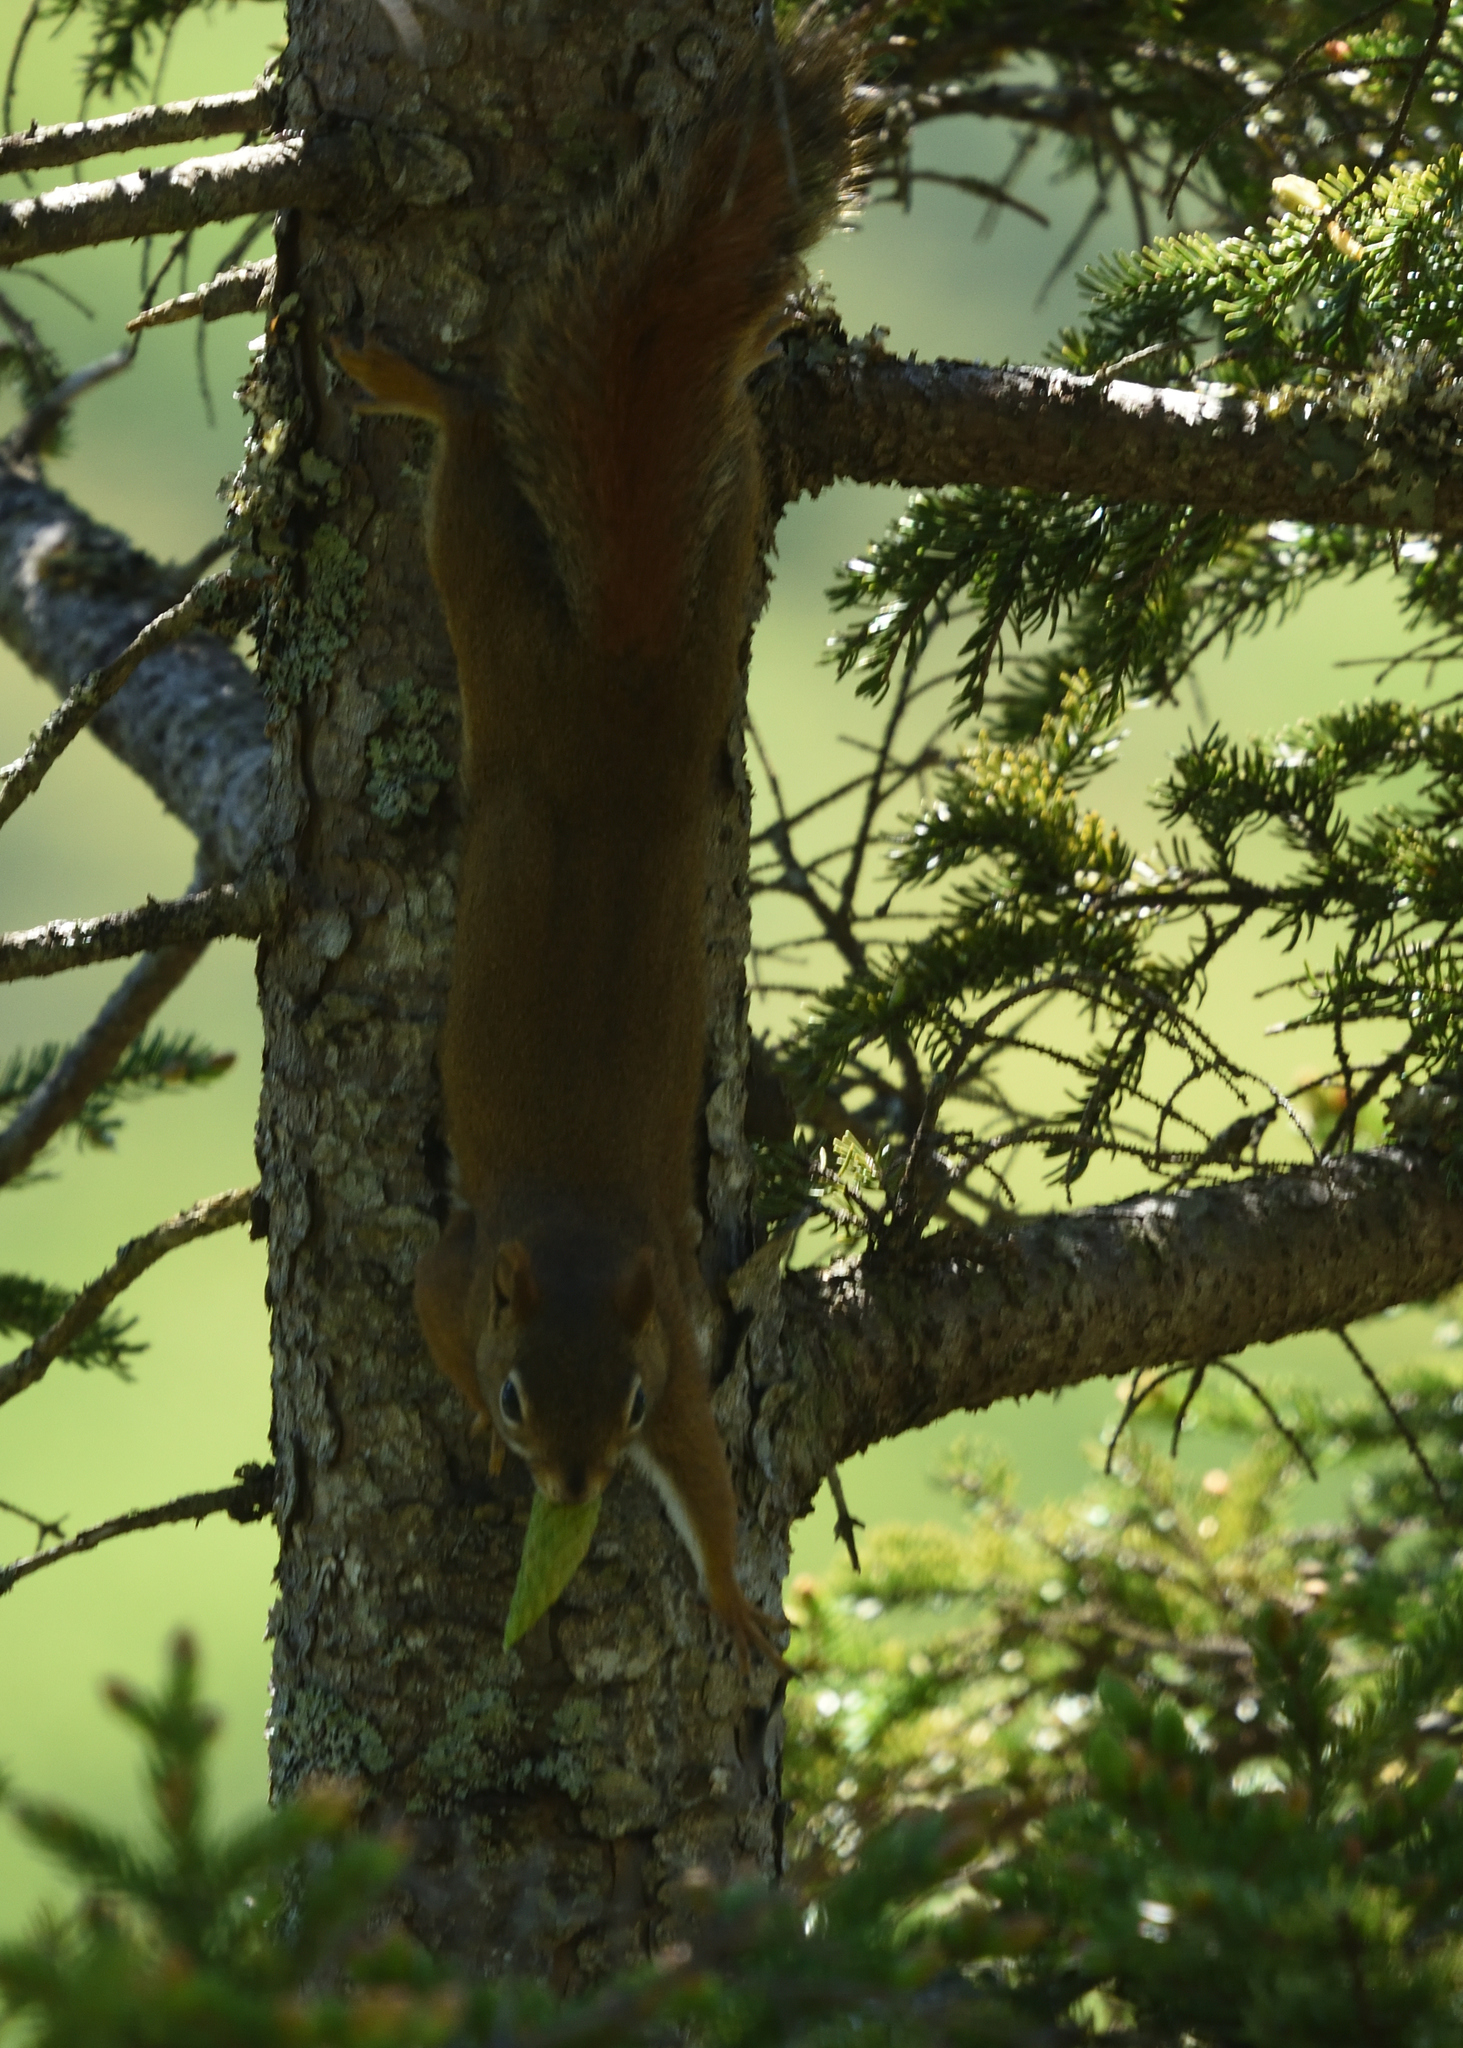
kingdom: Animalia
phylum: Chordata
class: Mammalia
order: Rodentia
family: Sciuridae
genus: Tamiasciurus
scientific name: Tamiasciurus hudsonicus
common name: Red squirrel
